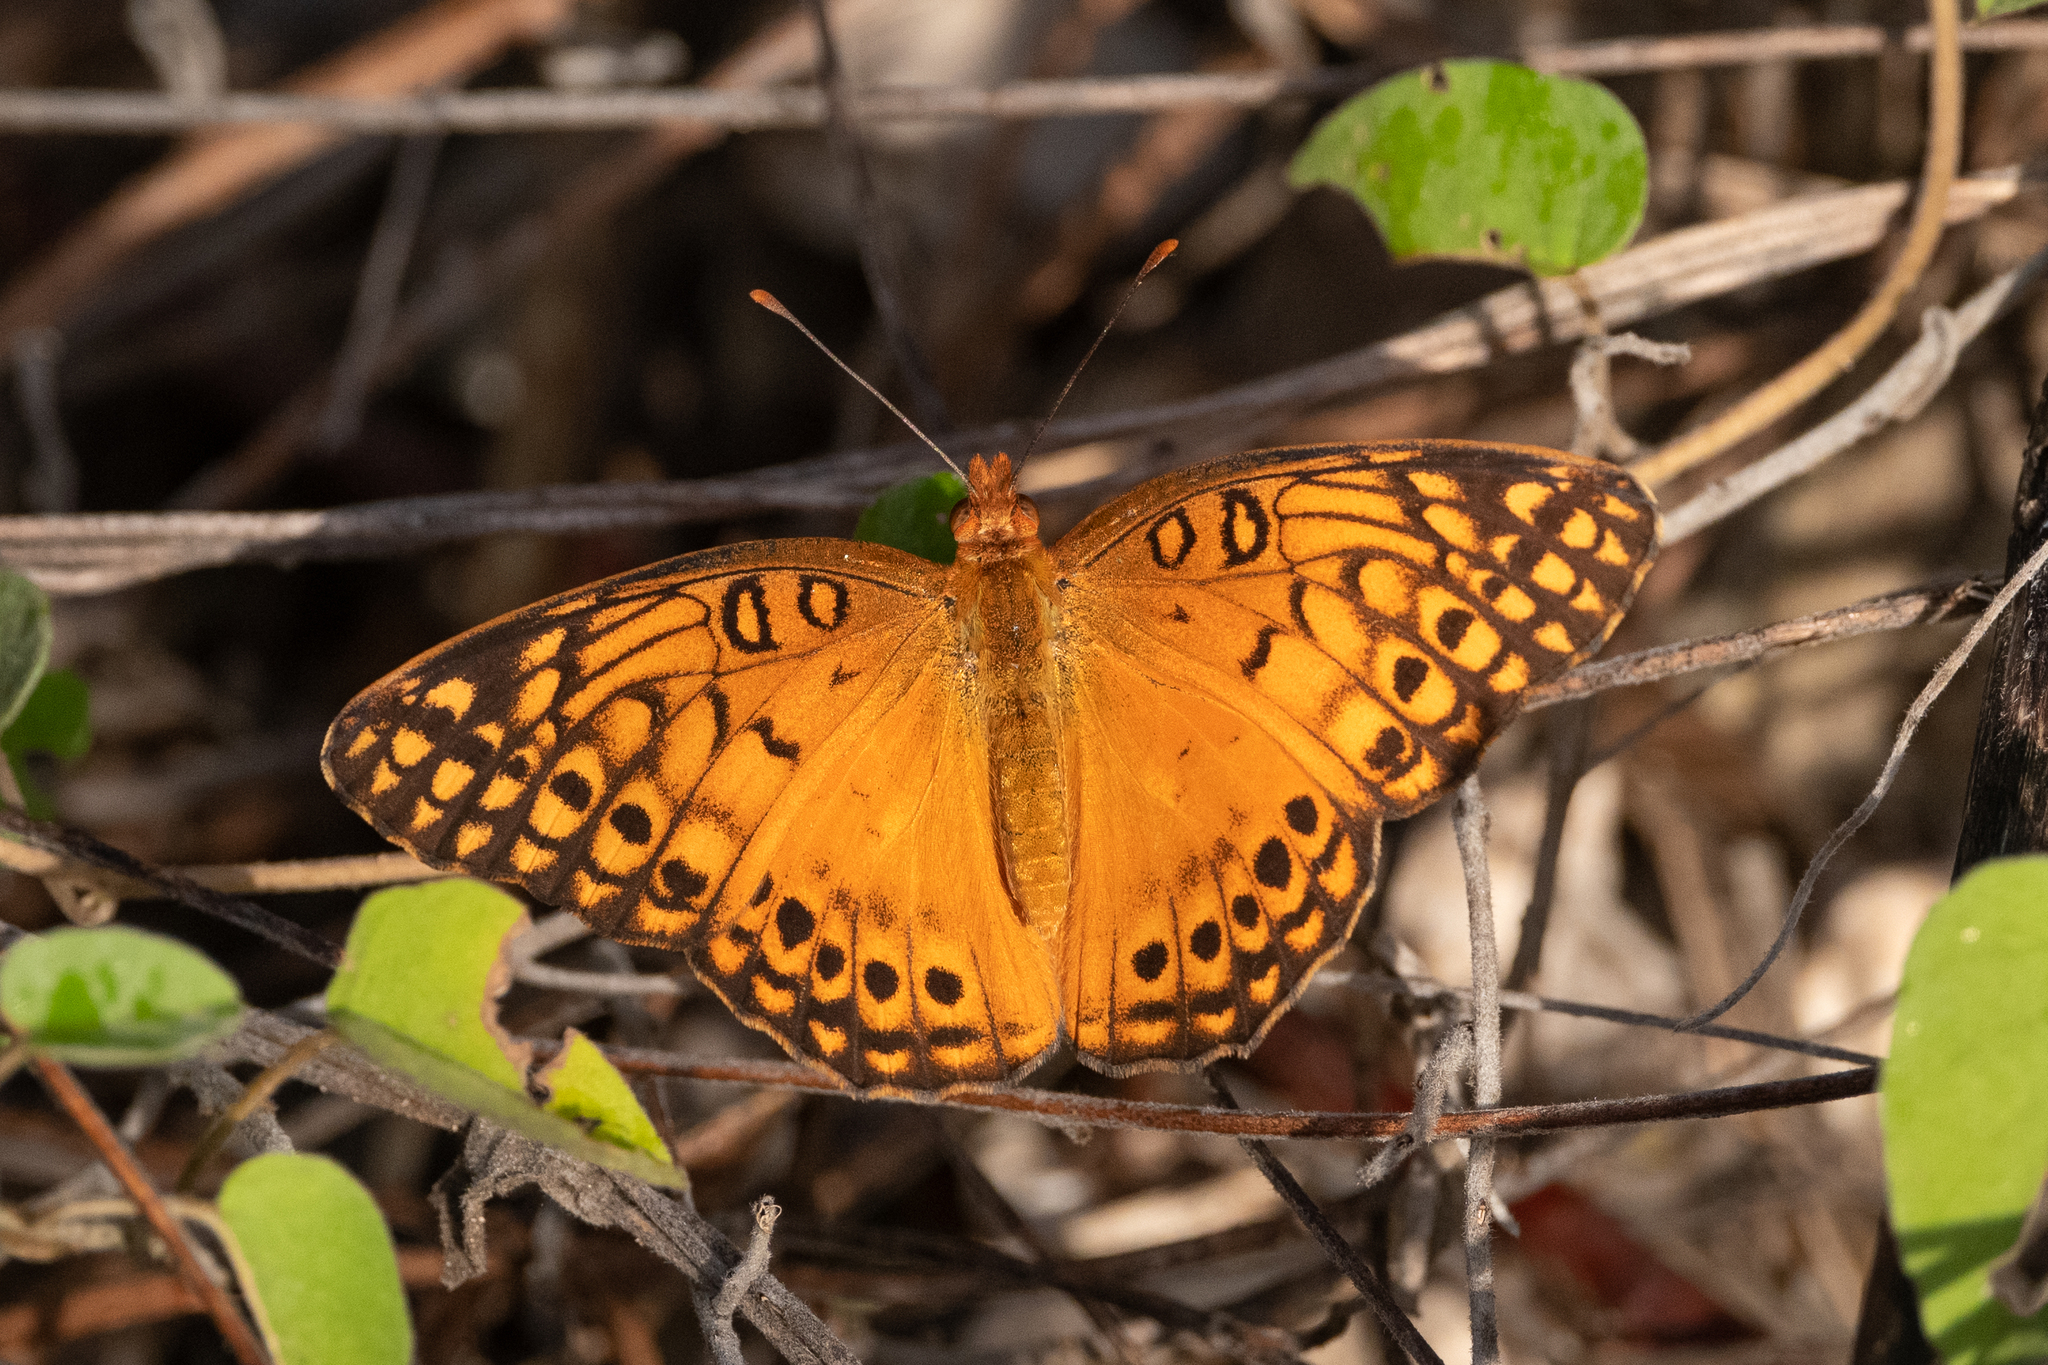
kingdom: Animalia
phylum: Arthropoda
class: Insecta
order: Lepidoptera
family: Nymphalidae
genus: Euptoieta
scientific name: Euptoieta hegesia
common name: Mexican fritillary
